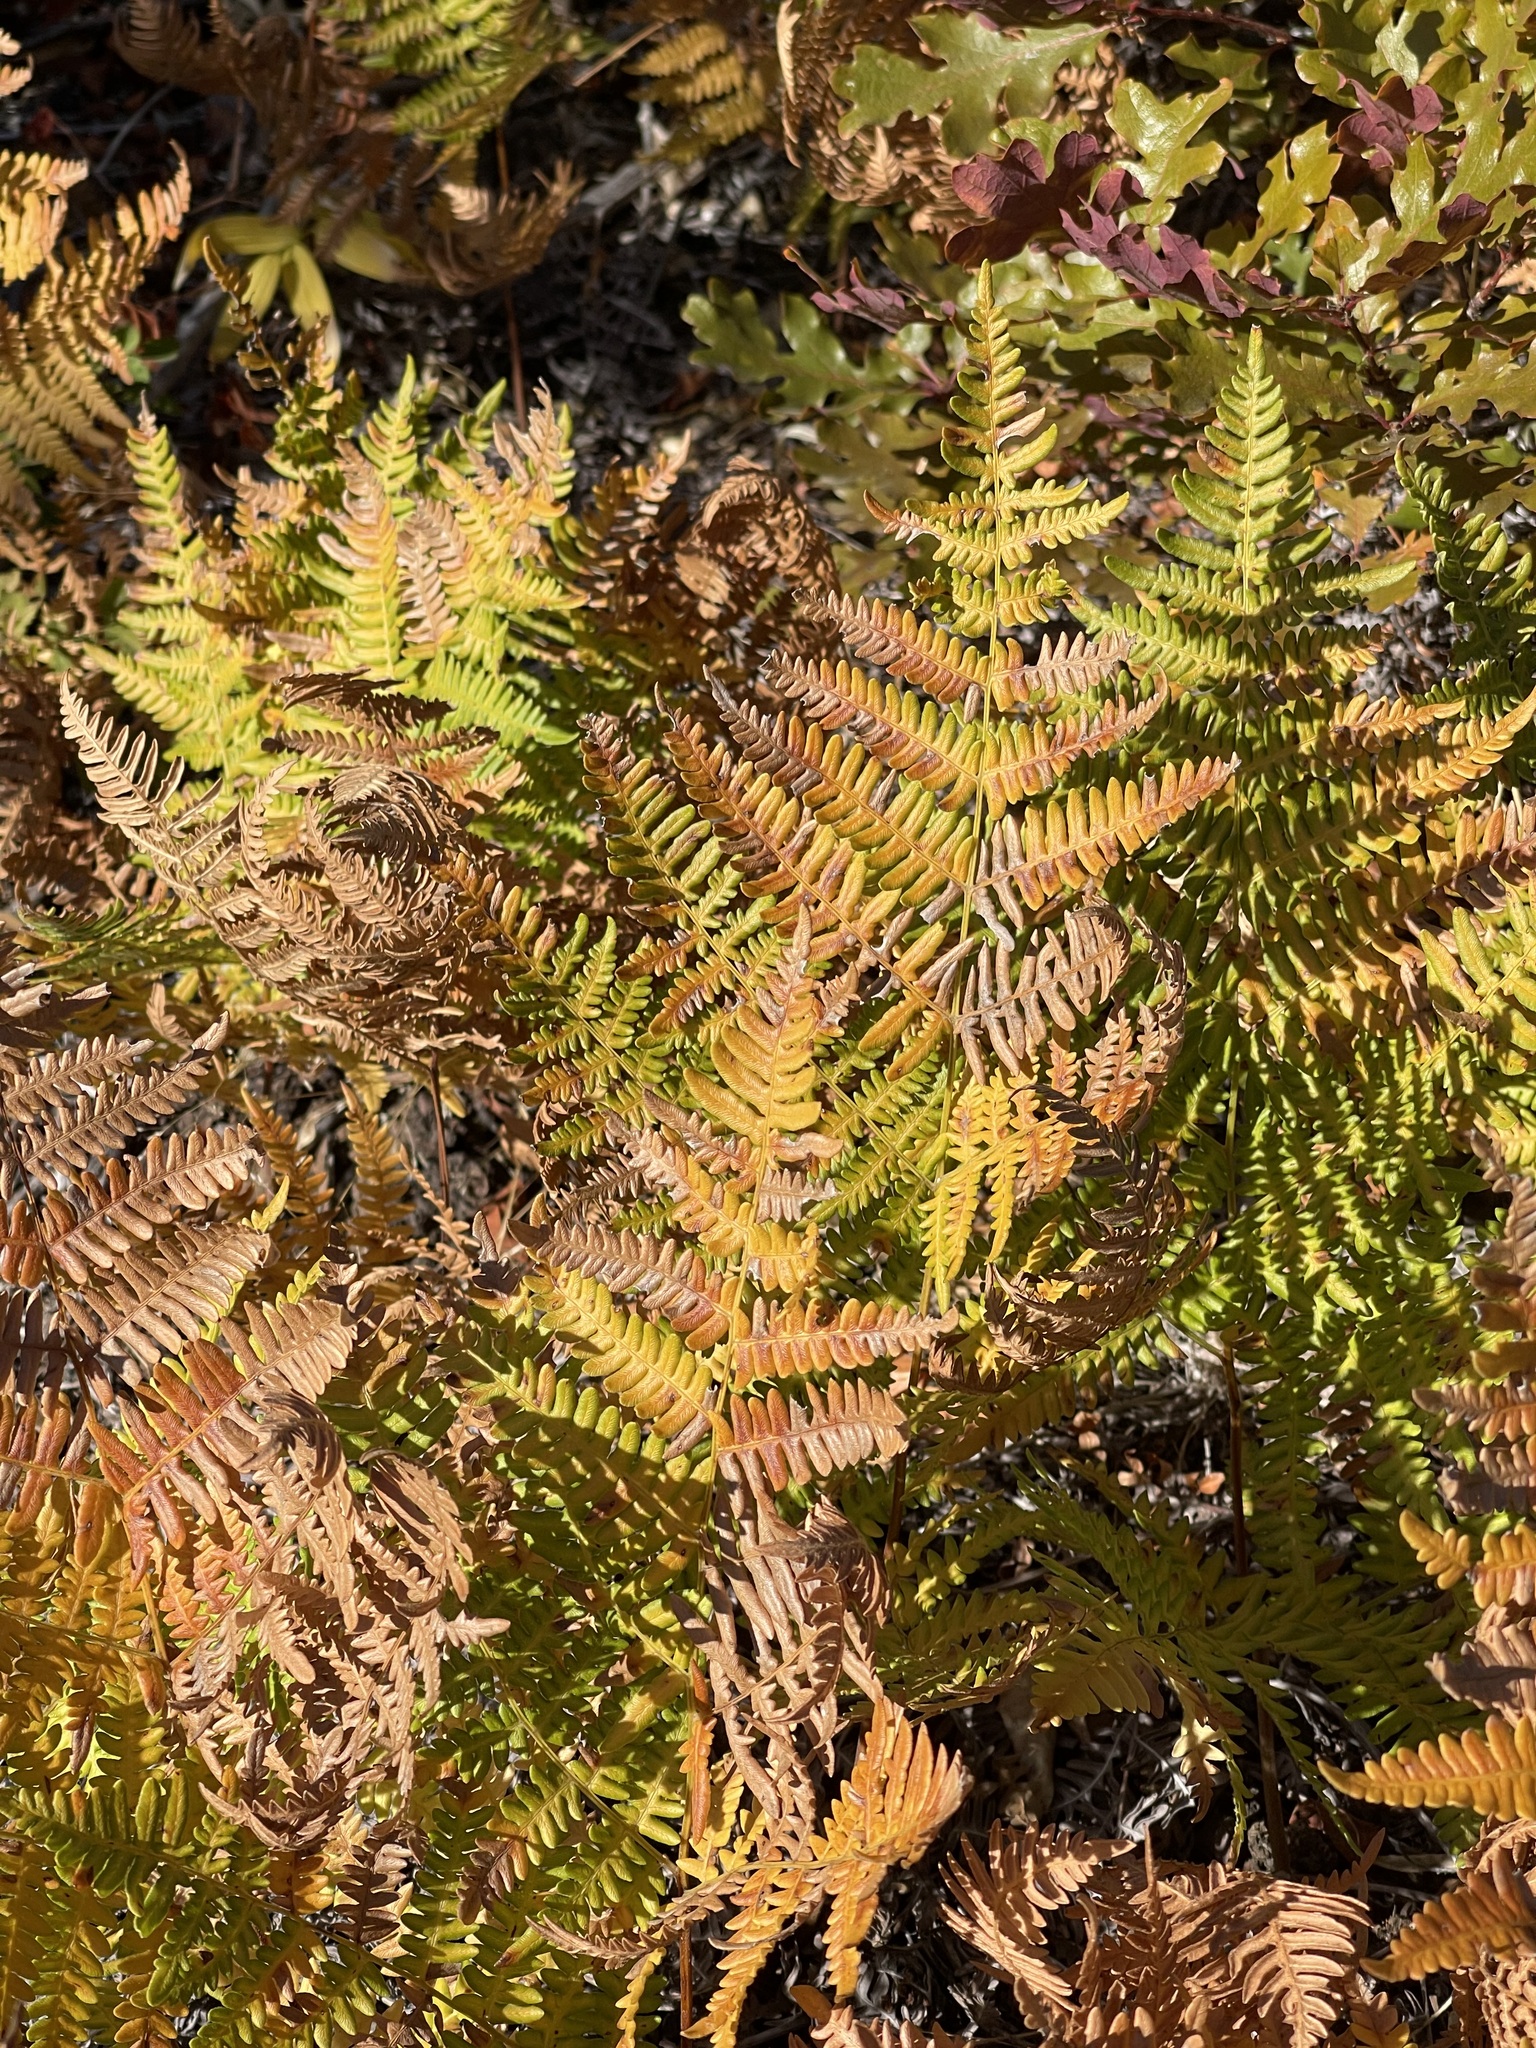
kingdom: Plantae
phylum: Tracheophyta
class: Polypodiopsida
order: Polypodiales
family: Dennstaedtiaceae
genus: Pteridium
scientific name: Pteridium aquilinum
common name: Bracken
